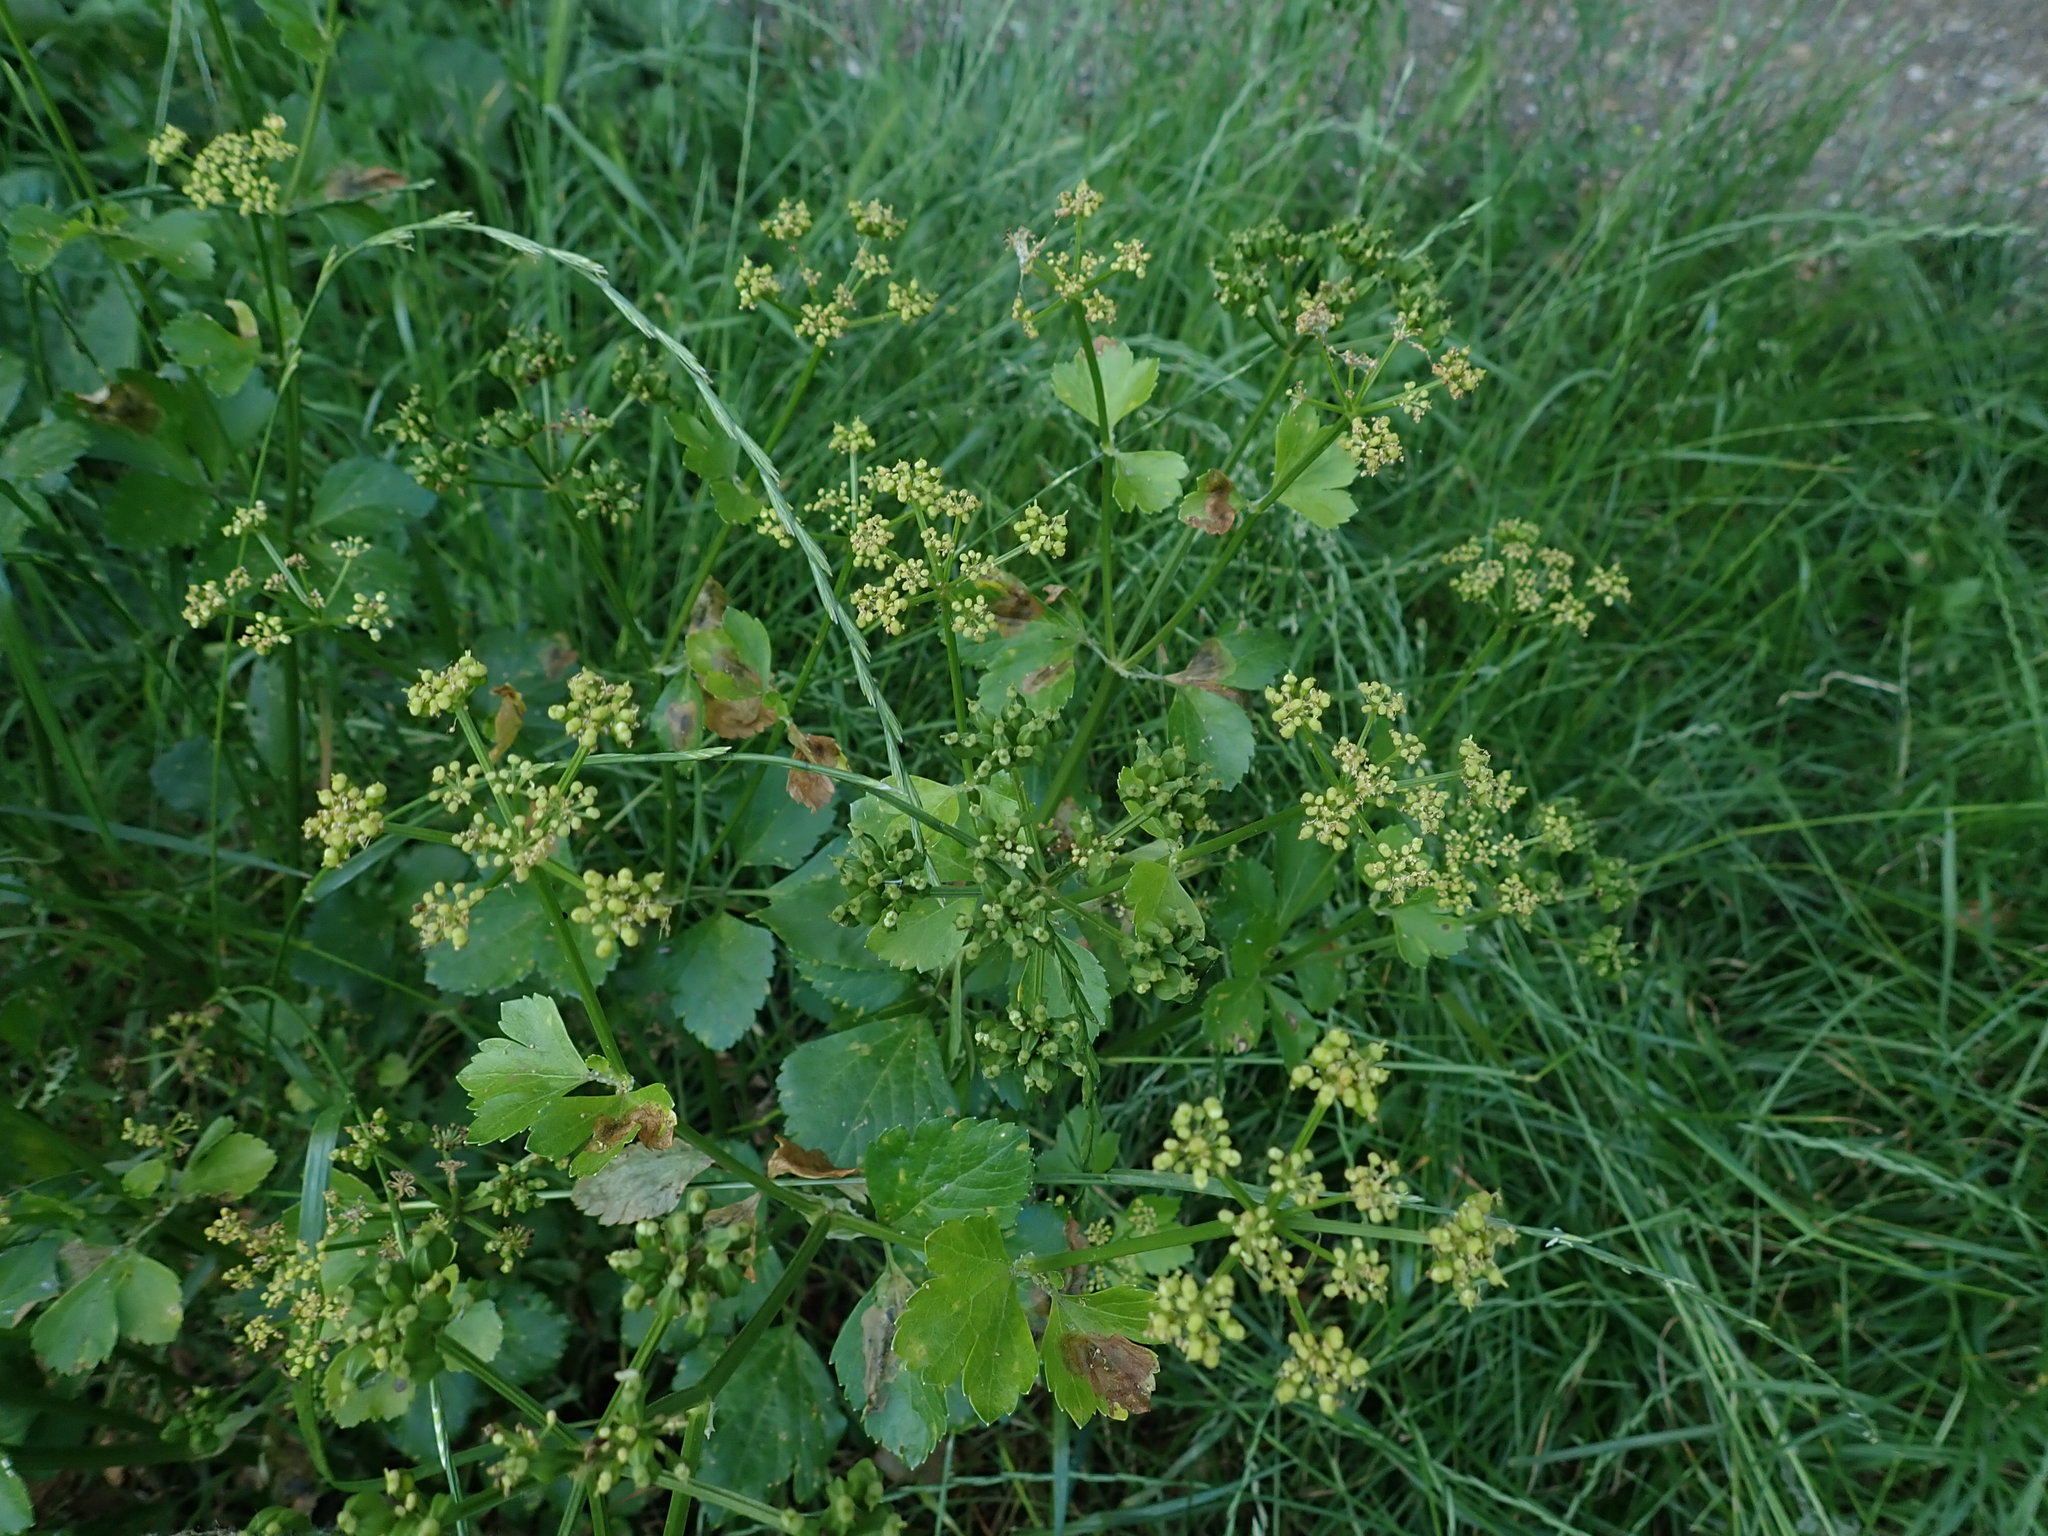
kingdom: Plantae
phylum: Tracheophyta
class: Magnoliopsida
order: Apiales
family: Apiaceae
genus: Smyrnium
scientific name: Smyrnium olusatrum
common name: Alexanders
